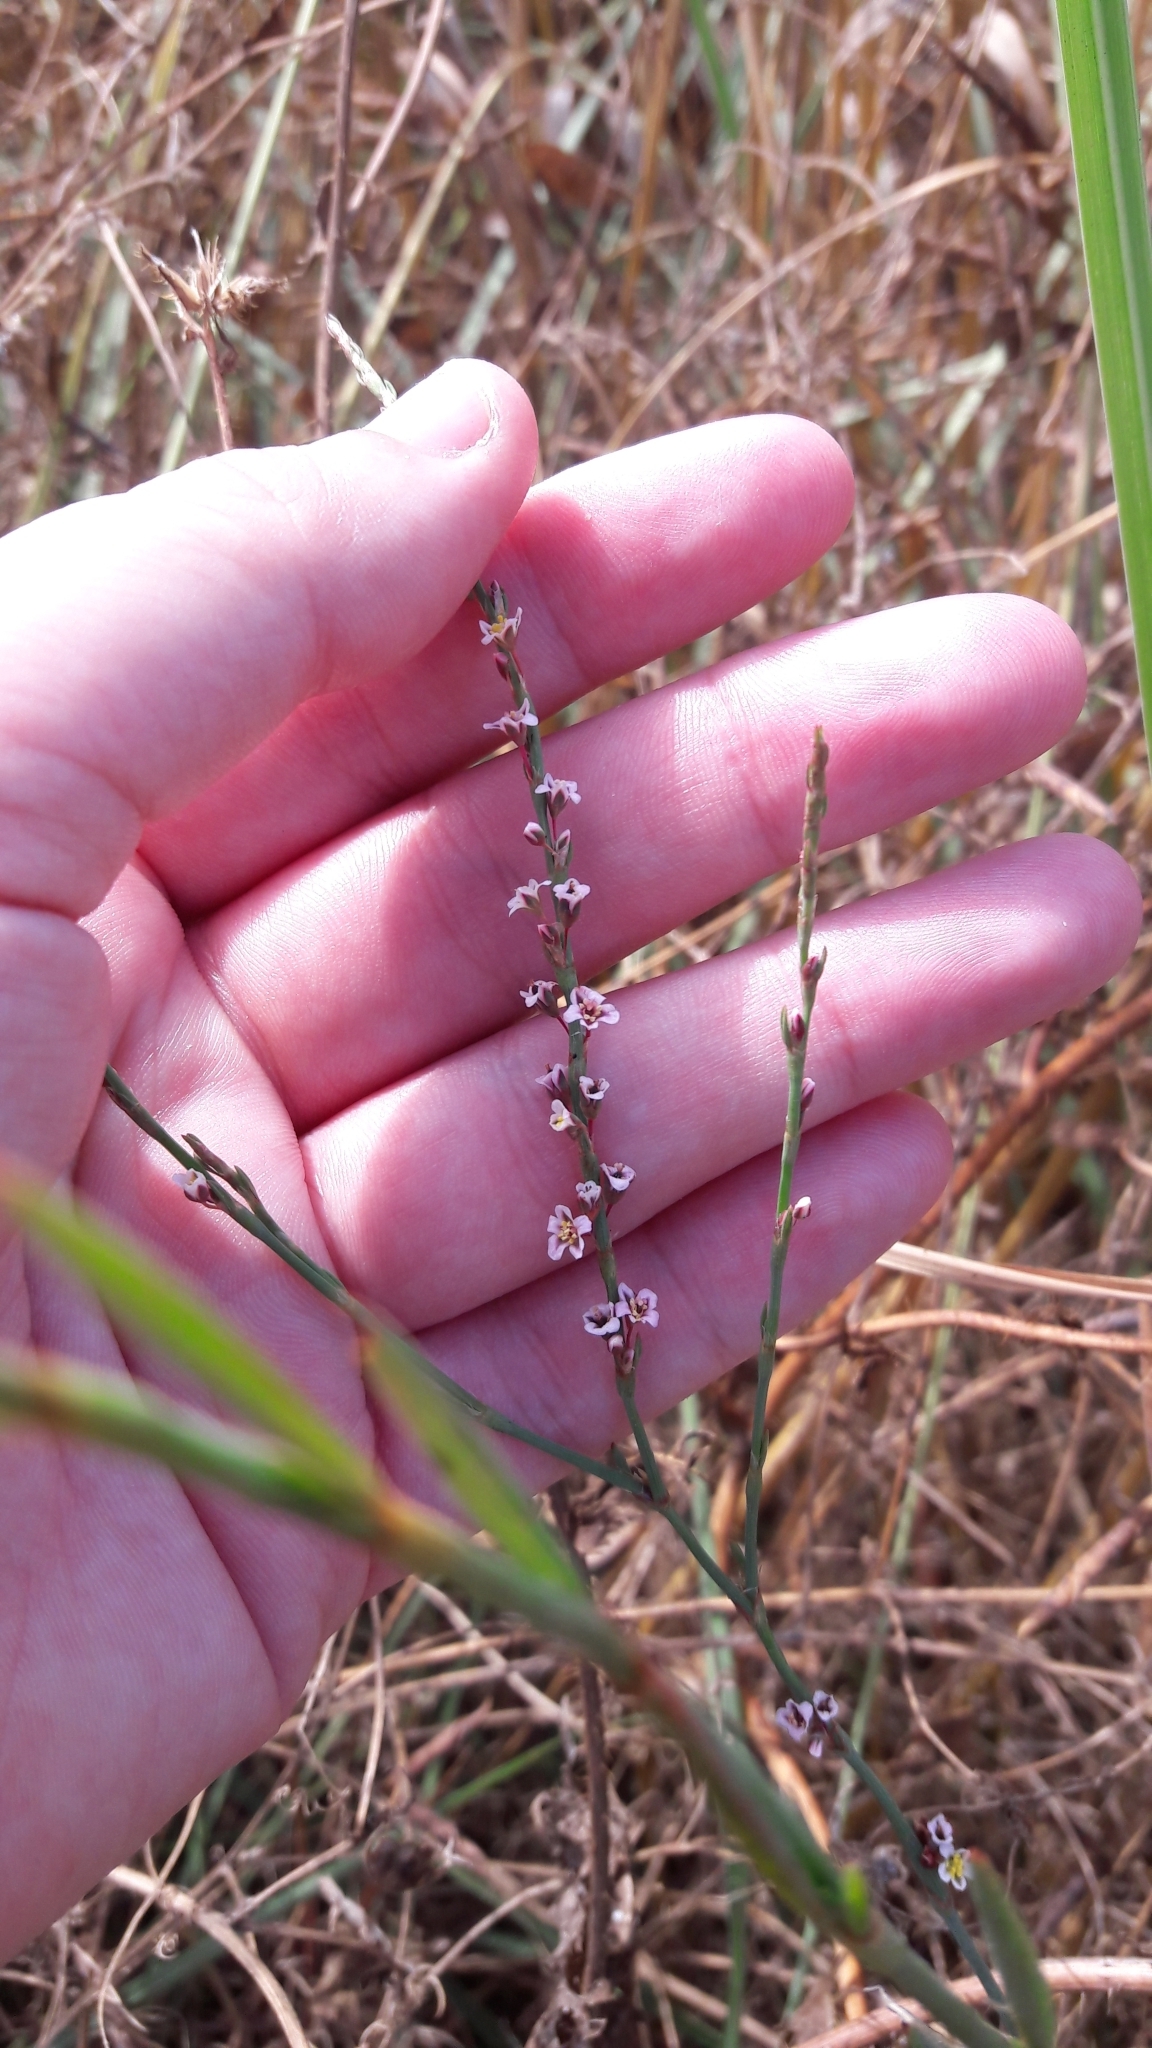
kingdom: Plantae
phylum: Tracheophyta
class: Magnoliopsida
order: Caryophyllales
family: Polygonaceae
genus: Polygonum
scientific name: Polygonum equisetiforme
